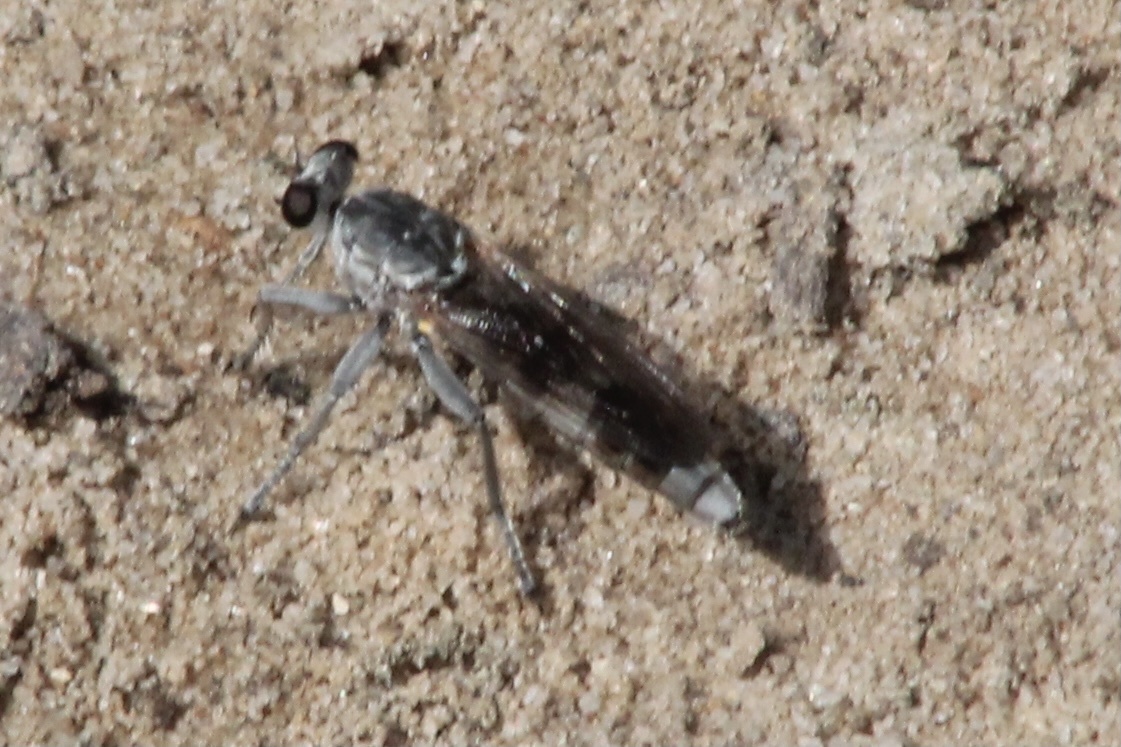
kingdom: Animalia
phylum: Arthropoda
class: Insecta
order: Diptera
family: Asilidae
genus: Stichopogon
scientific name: Stichopogon trifasciatus
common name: Three-banded robber fly
